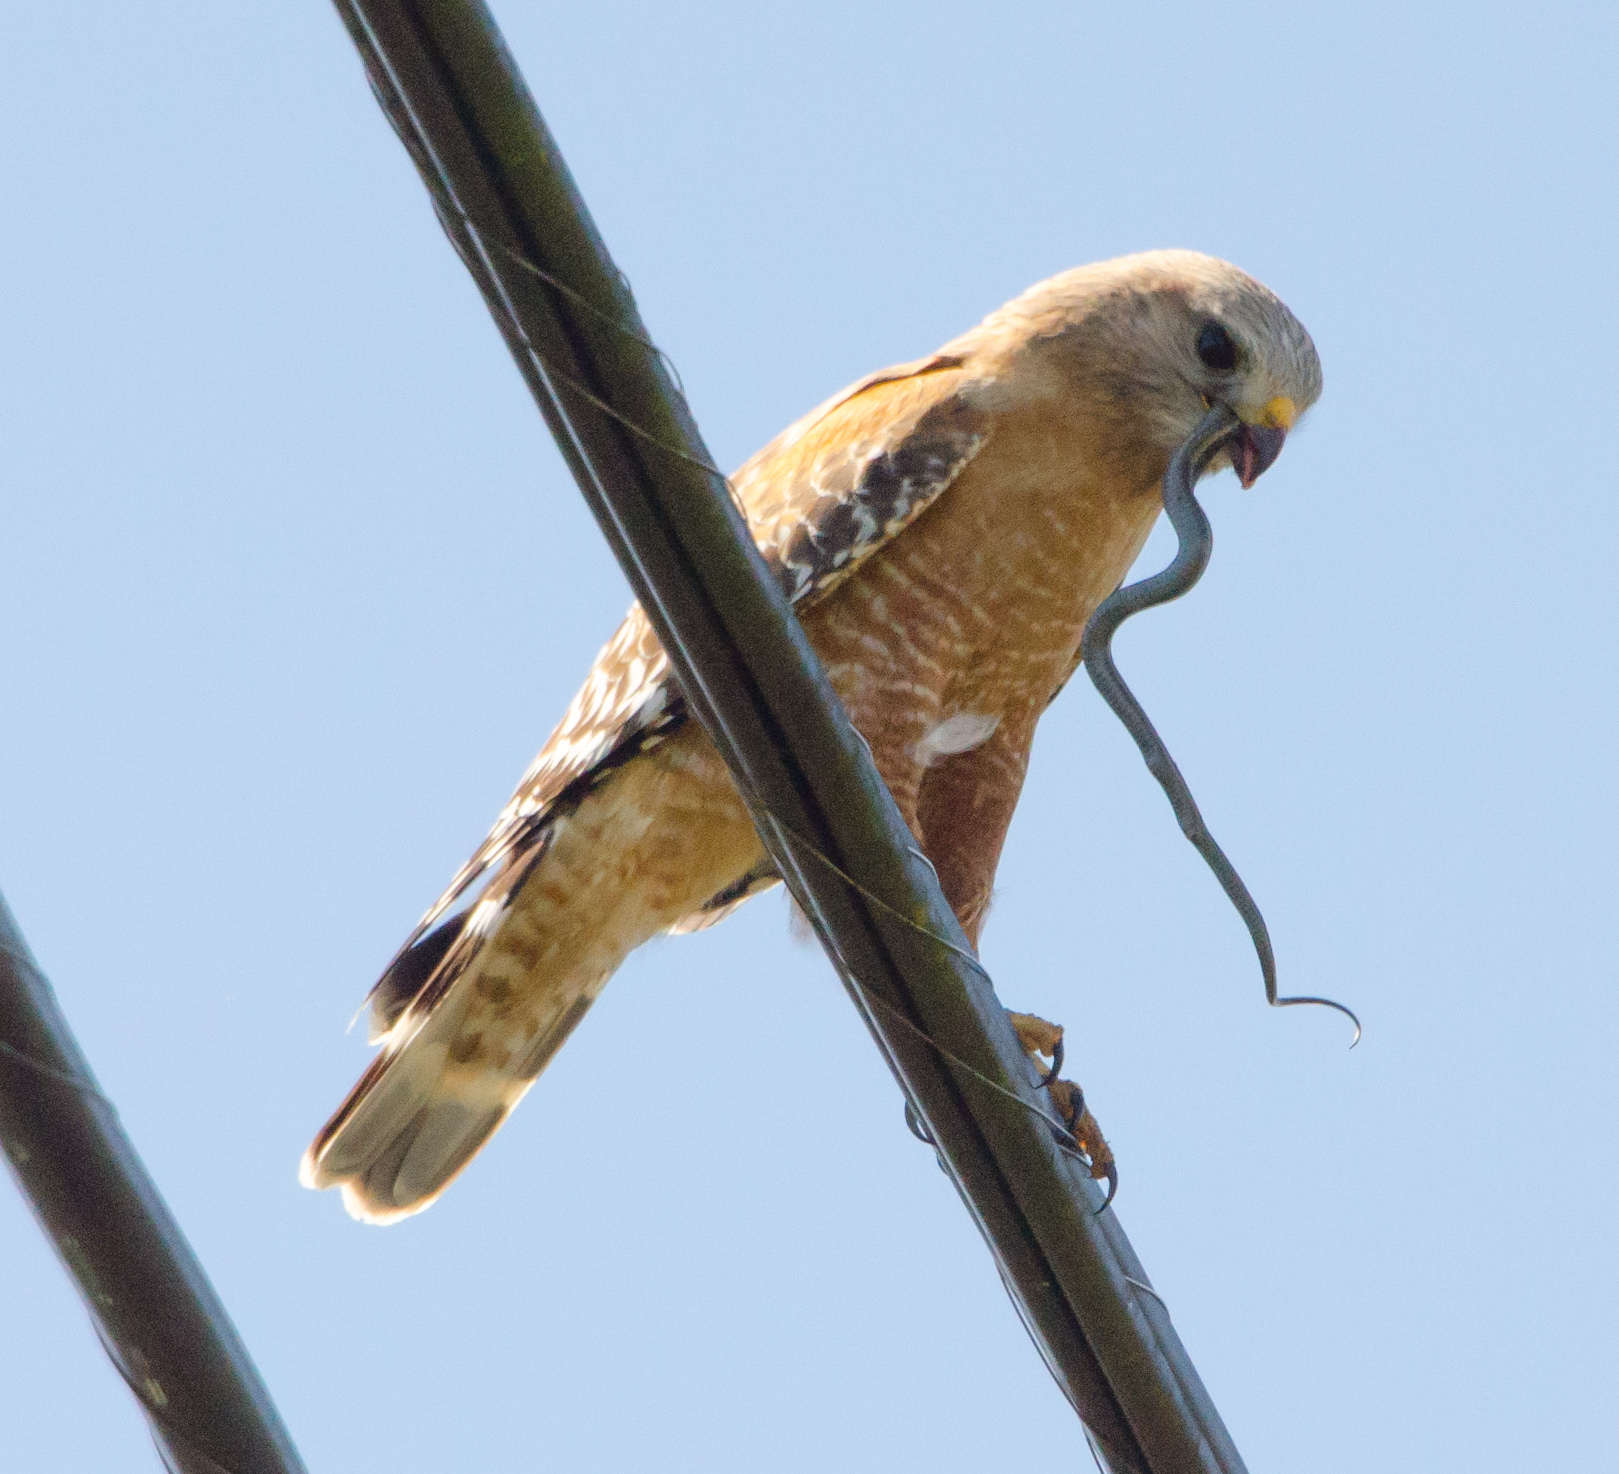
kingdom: Animalia
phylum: Chordata
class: Aves
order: Accipitriformes
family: Accipitridae
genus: Buteo
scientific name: Buteo lineatus
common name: Red-shouldered hawk
